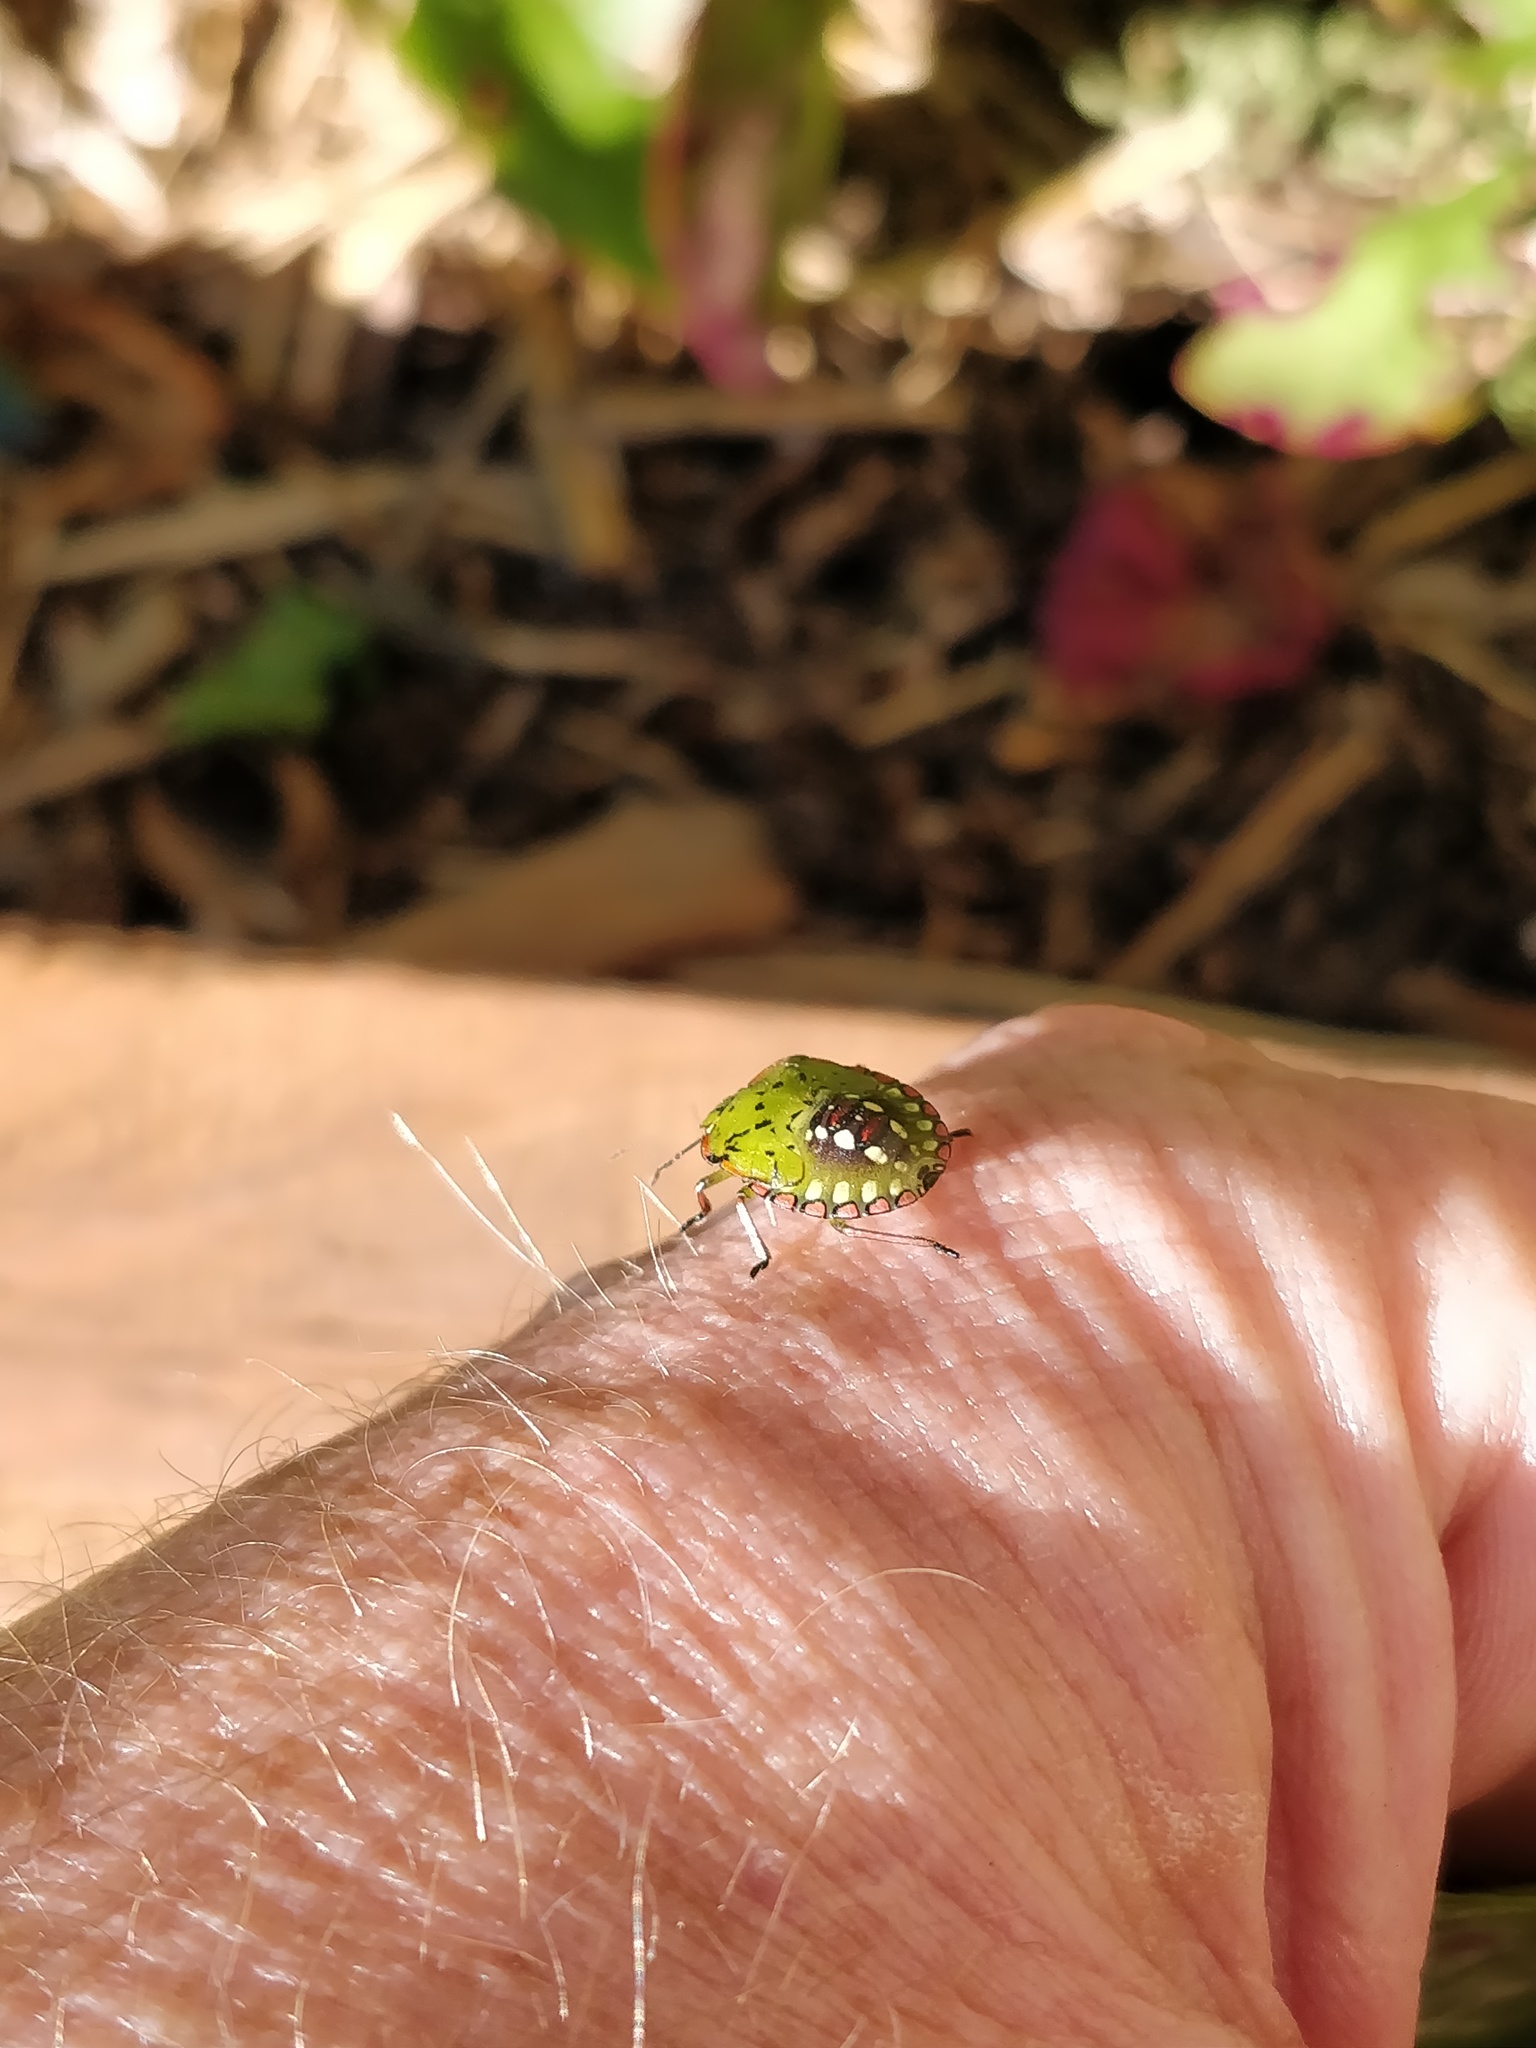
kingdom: Animalia
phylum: Arthropoda
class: Insecta
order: Hemiptera
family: Pentatomidae
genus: Nezara
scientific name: Nezara viridula
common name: Southern green stink bug
